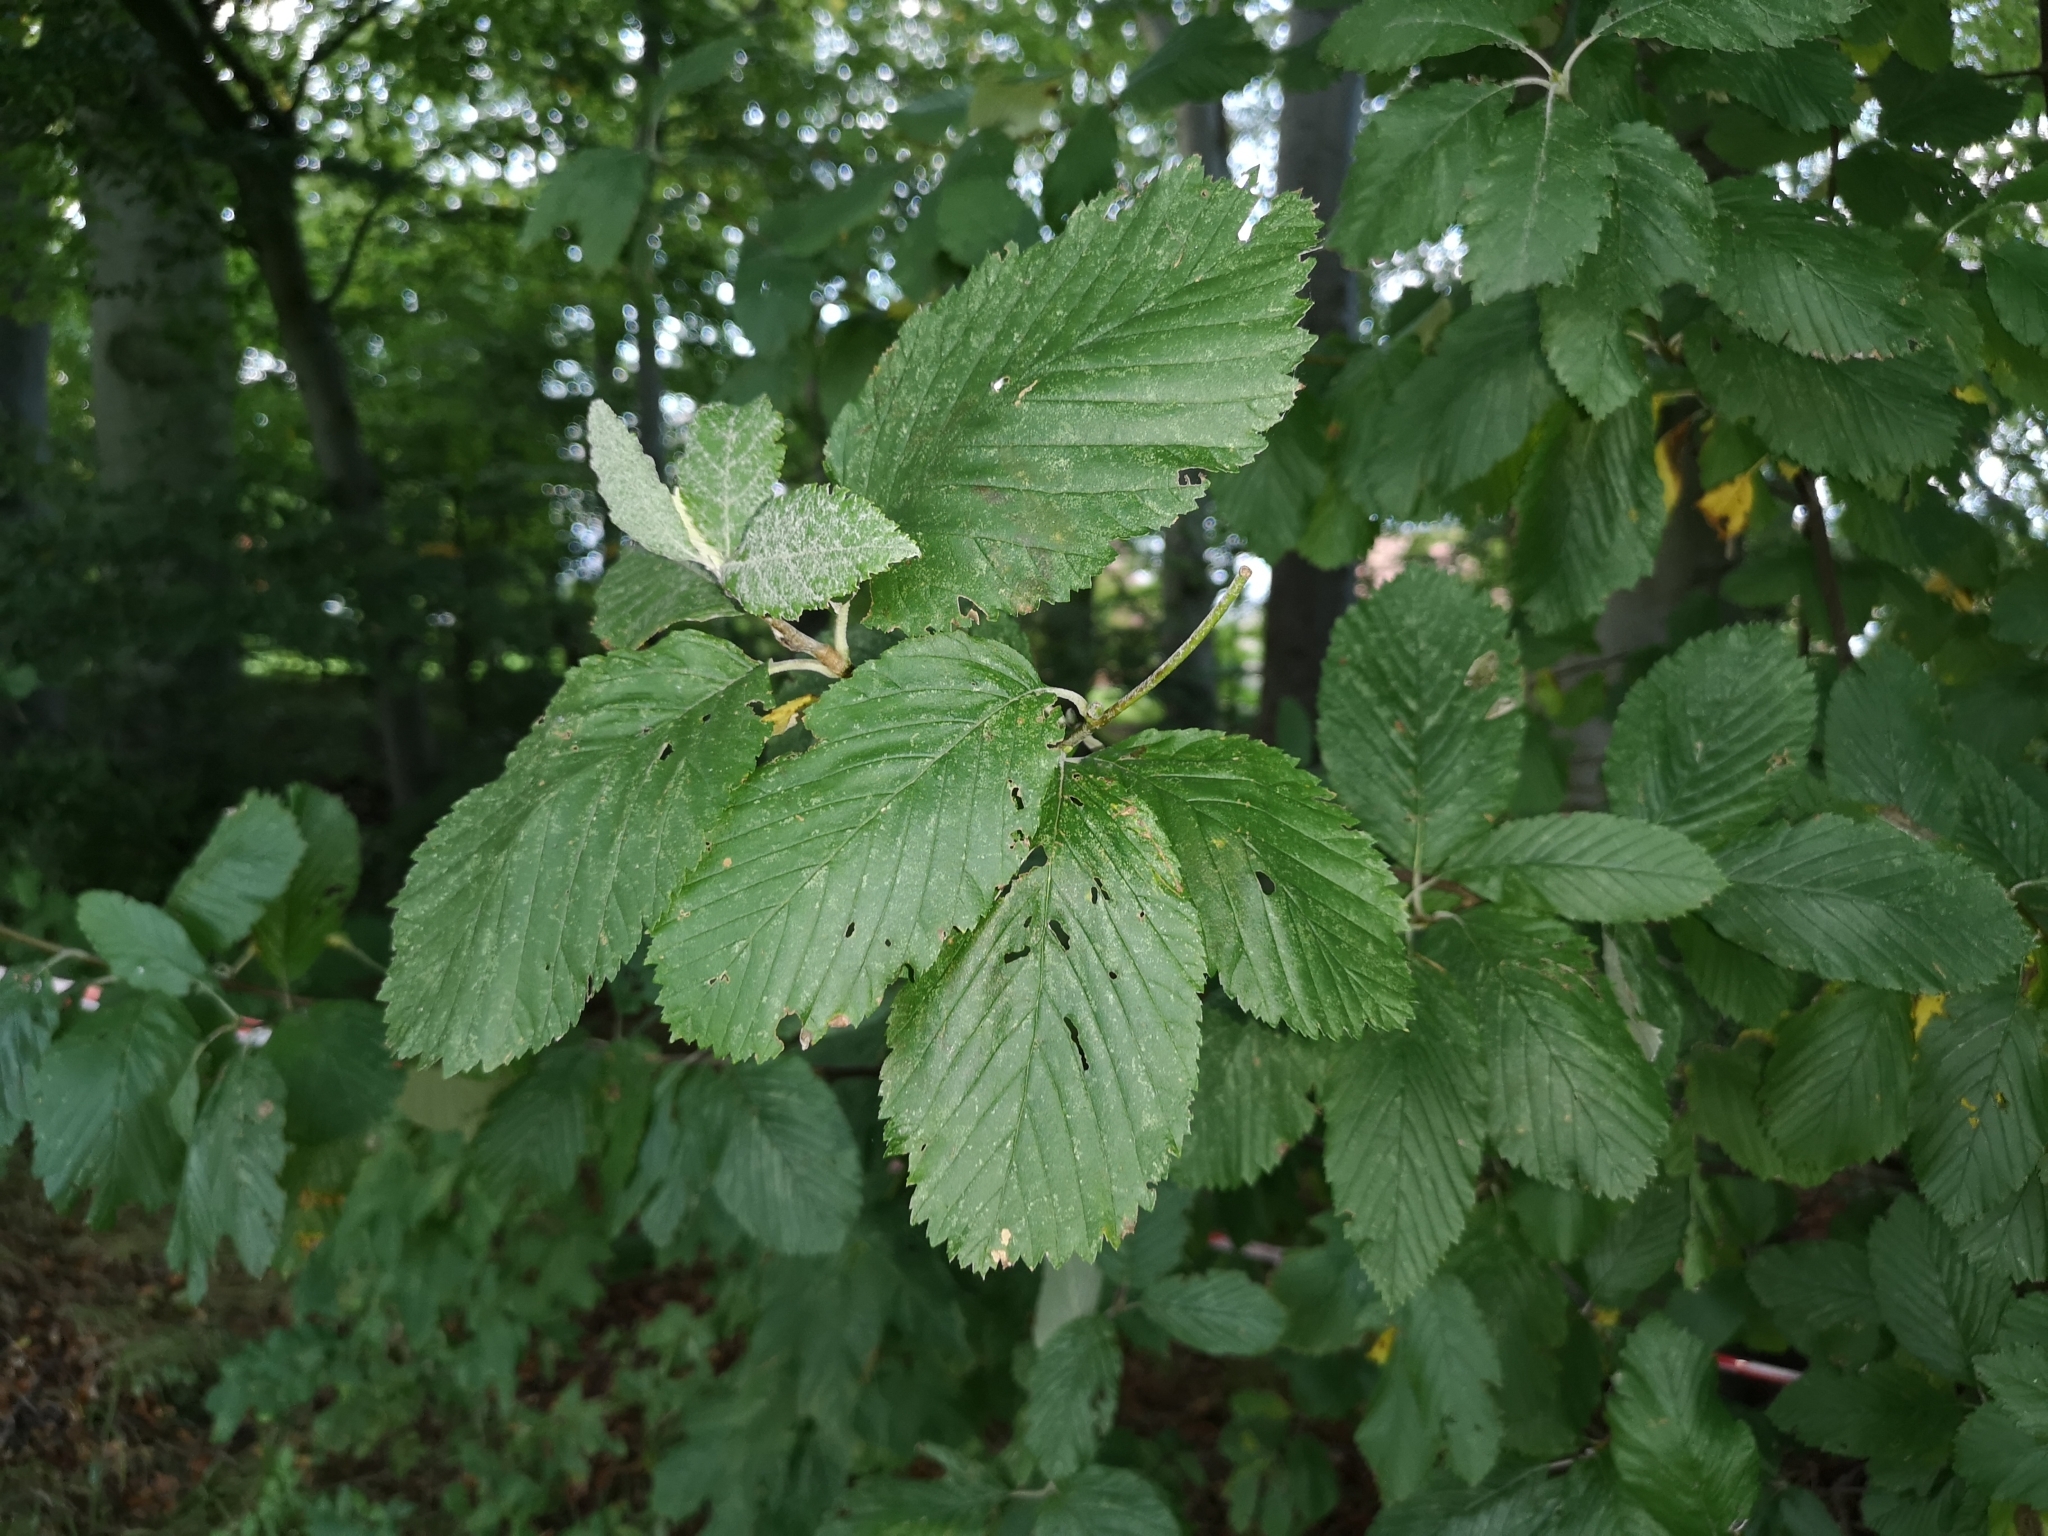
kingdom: Plantae
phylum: Tracheophyta
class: Magnoliopsida
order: Rosales
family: Rosaceae
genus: Aria
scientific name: Aria edulis
